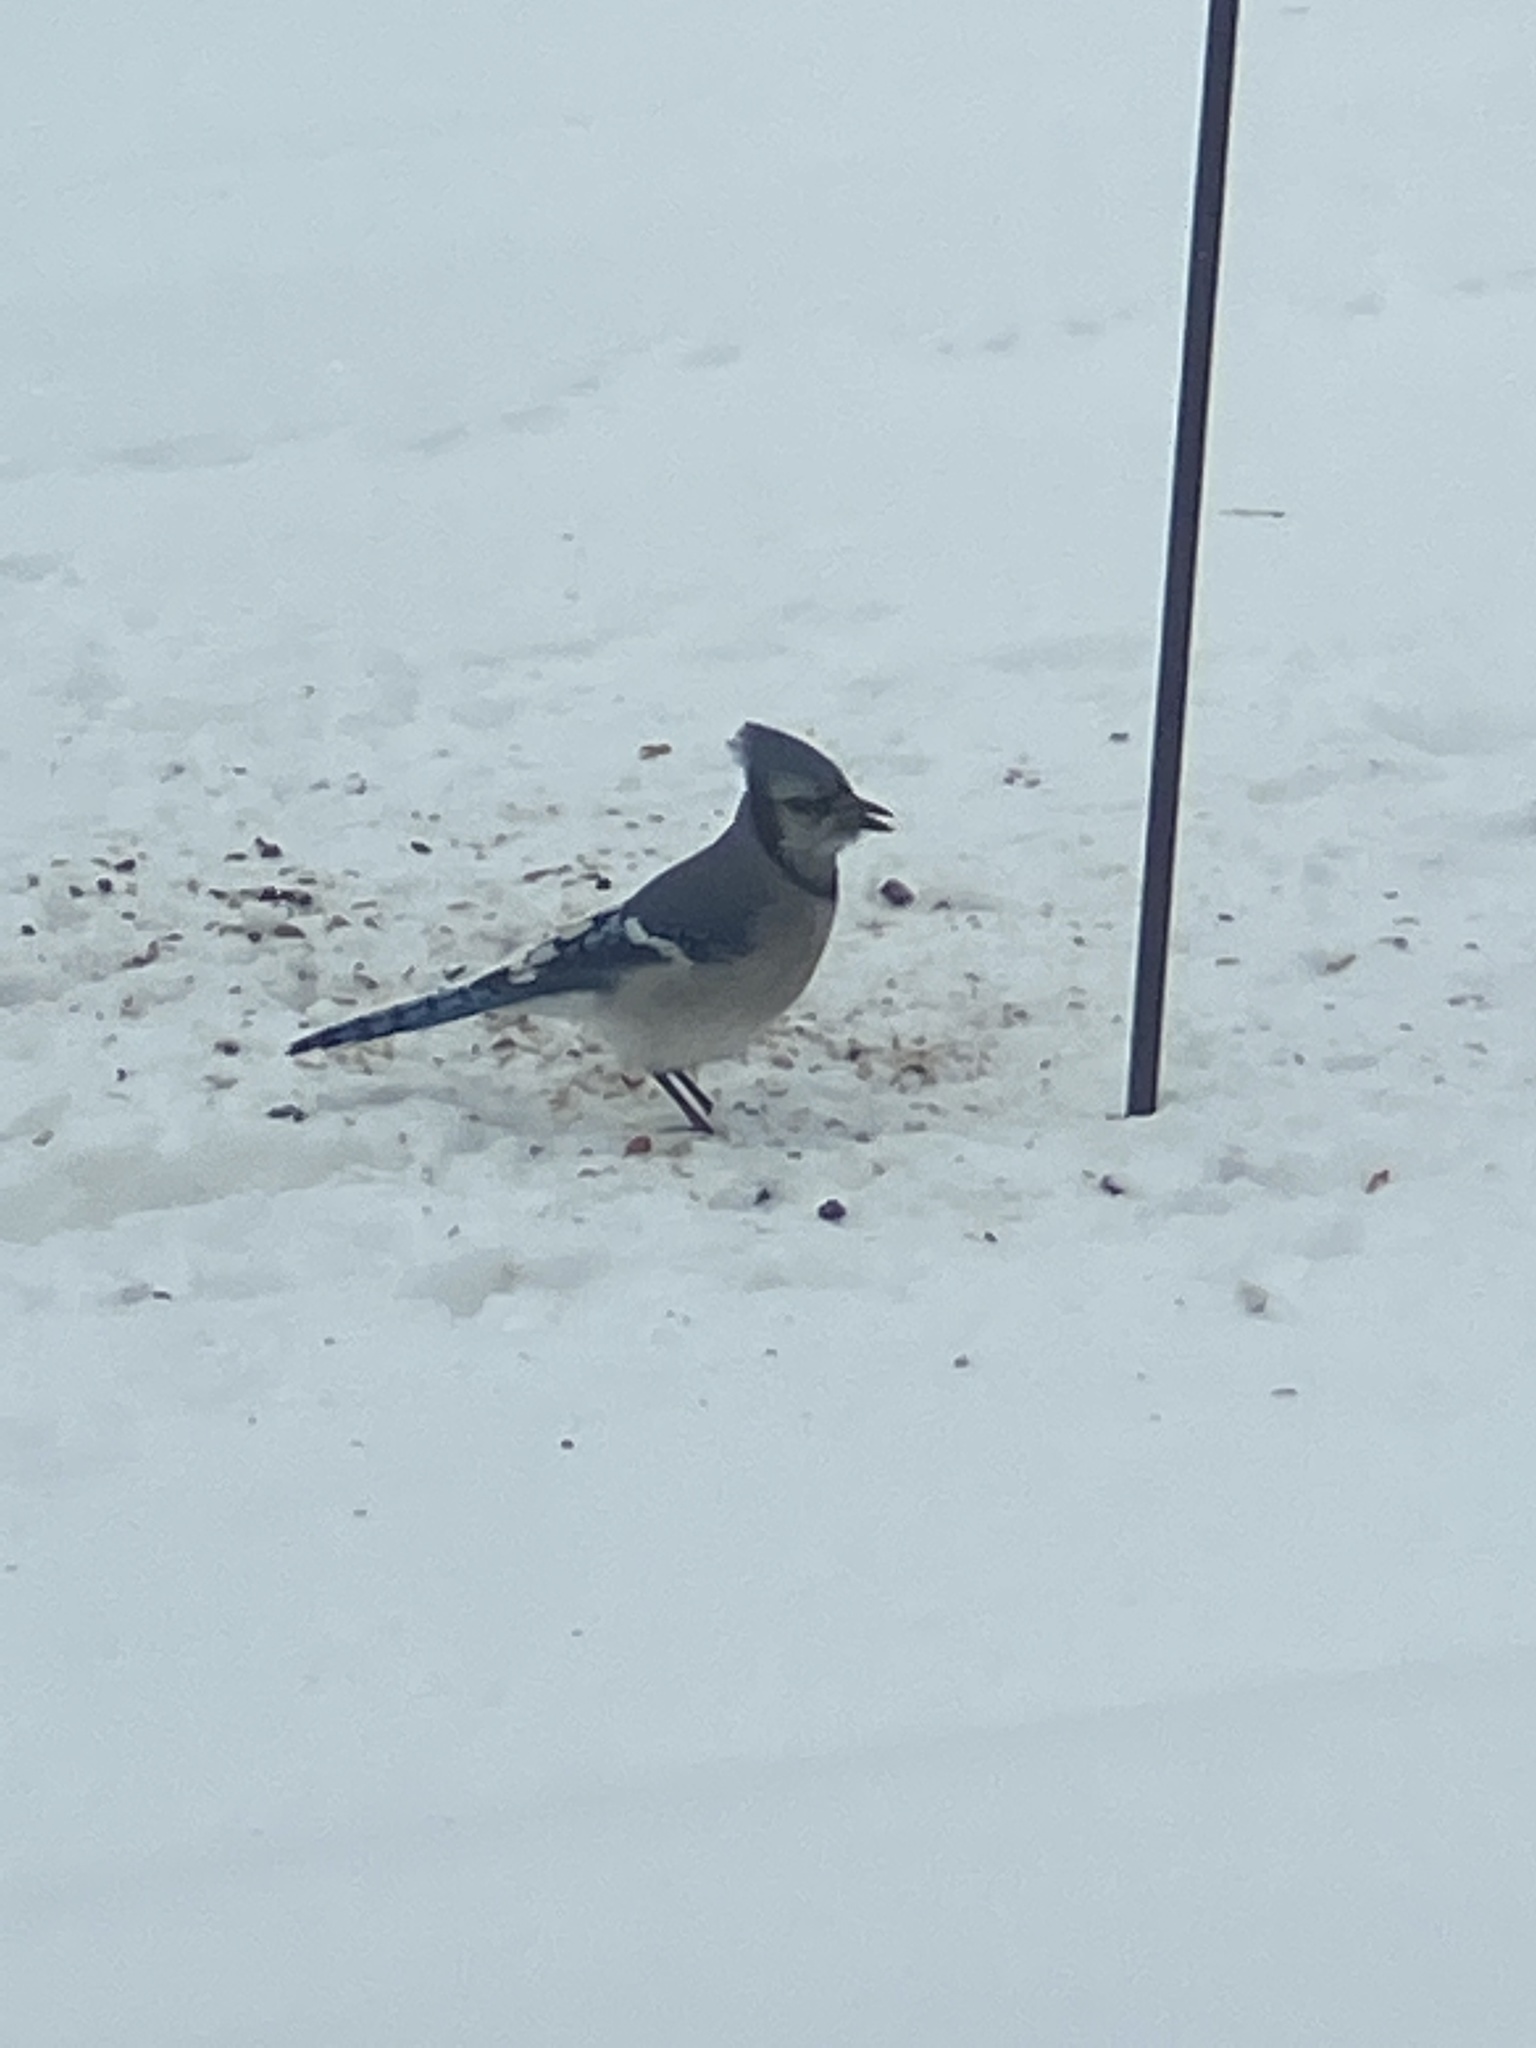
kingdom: Animalia
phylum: Chordata
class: Aves
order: Passeriformes
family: Corvidae
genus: Cyanocitta
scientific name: Cyanocitta cristata
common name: Blue jay
